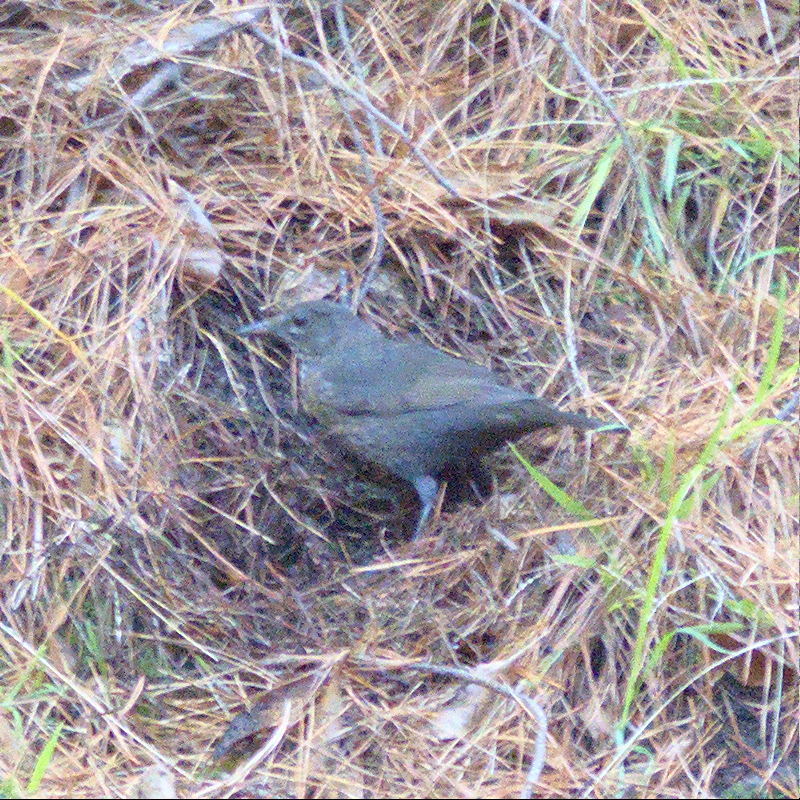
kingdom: Animalia
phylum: Chordata
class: Aves
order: Passeriformes
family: Turdidae
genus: Turdus
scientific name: Turdus merula
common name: Common blackbird
